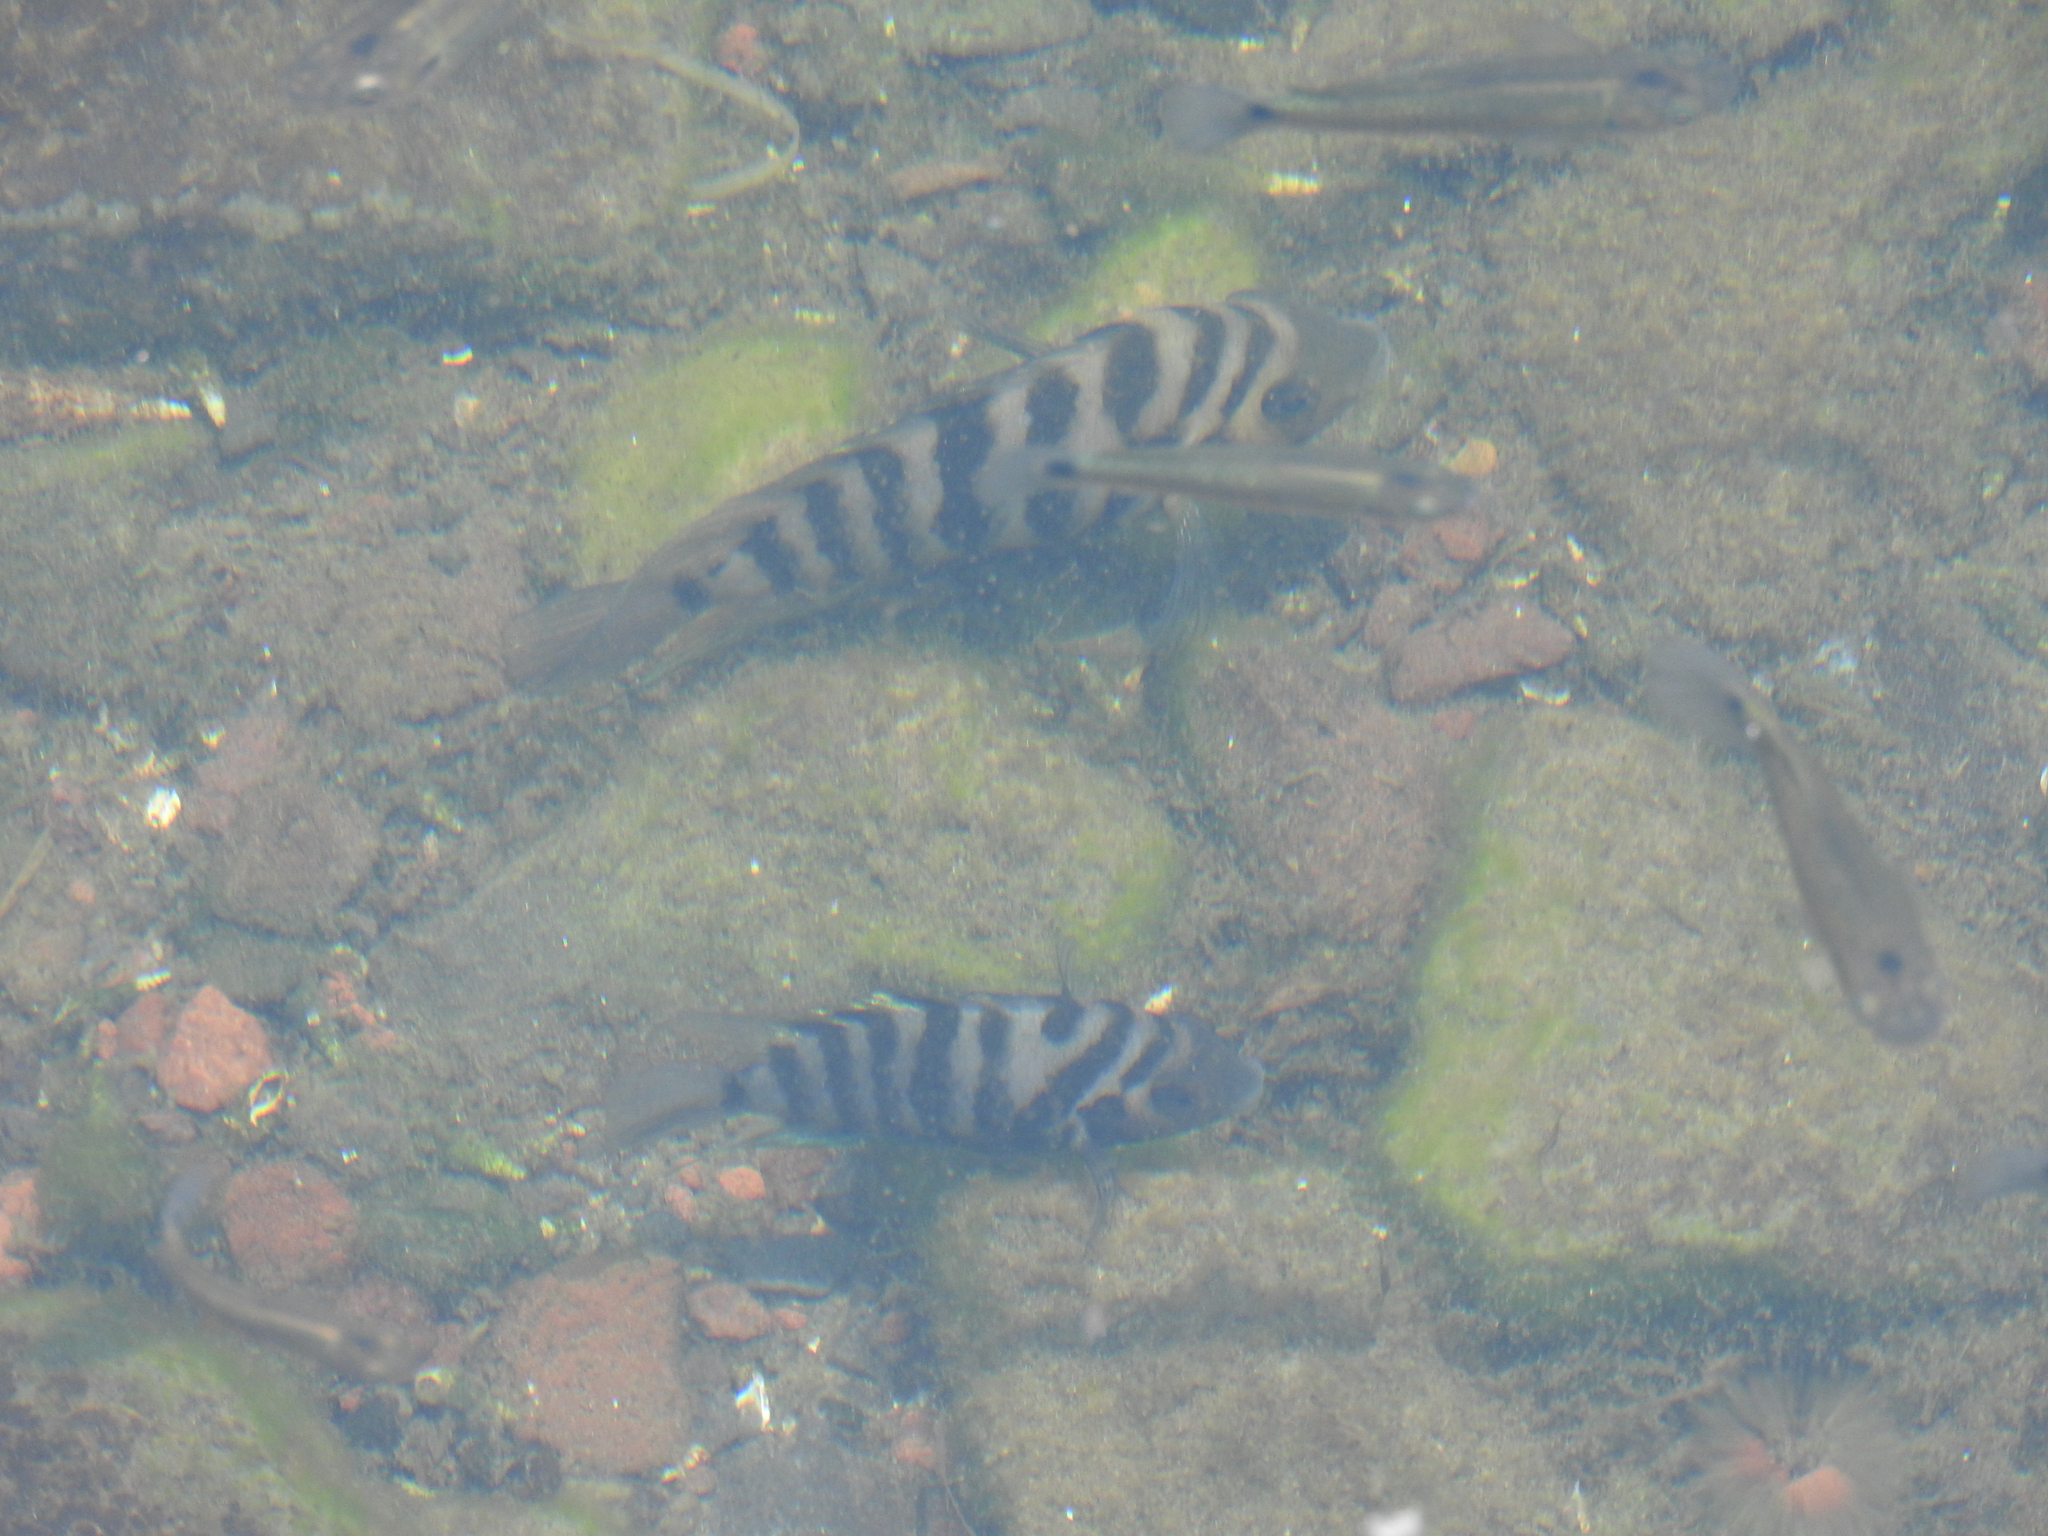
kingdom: Animalia
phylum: Chordata
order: Perciformes
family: Cichlidae
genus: Amatitlania
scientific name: Amatitlania nigrofasciata
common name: Convict cichlid
